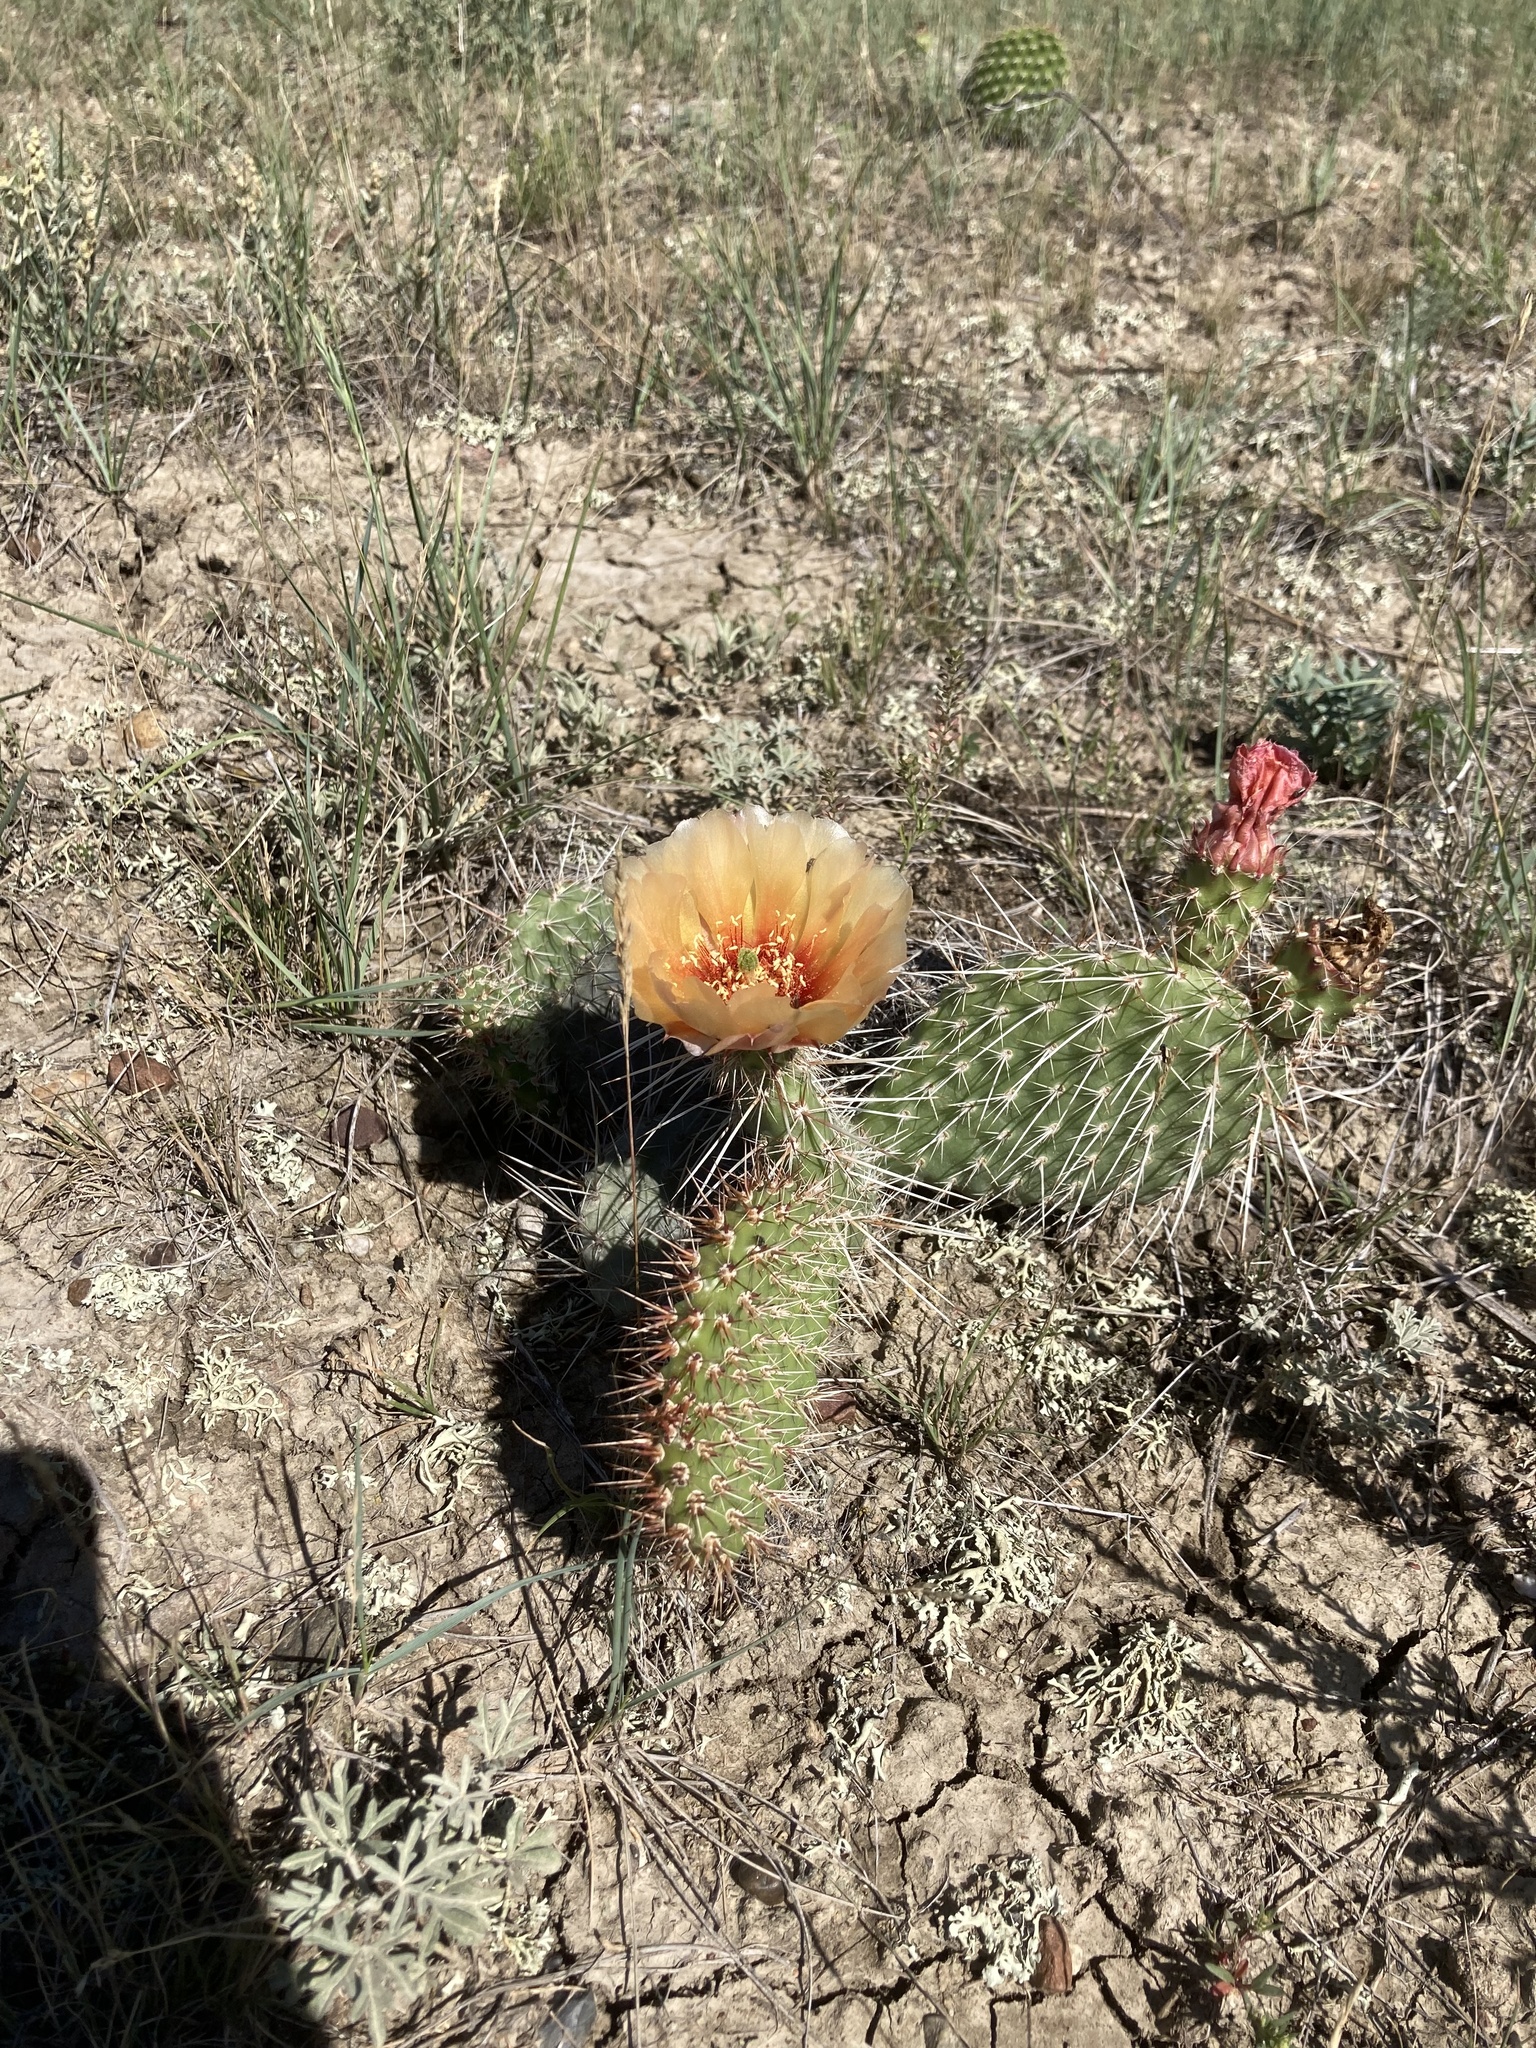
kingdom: Plantae
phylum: Tracheophyta
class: Magnoliopsida
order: Caryophyllales
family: Cactaceae
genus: Opuntia
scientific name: Opuntia polyacantha
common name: Plains prickly-pear
